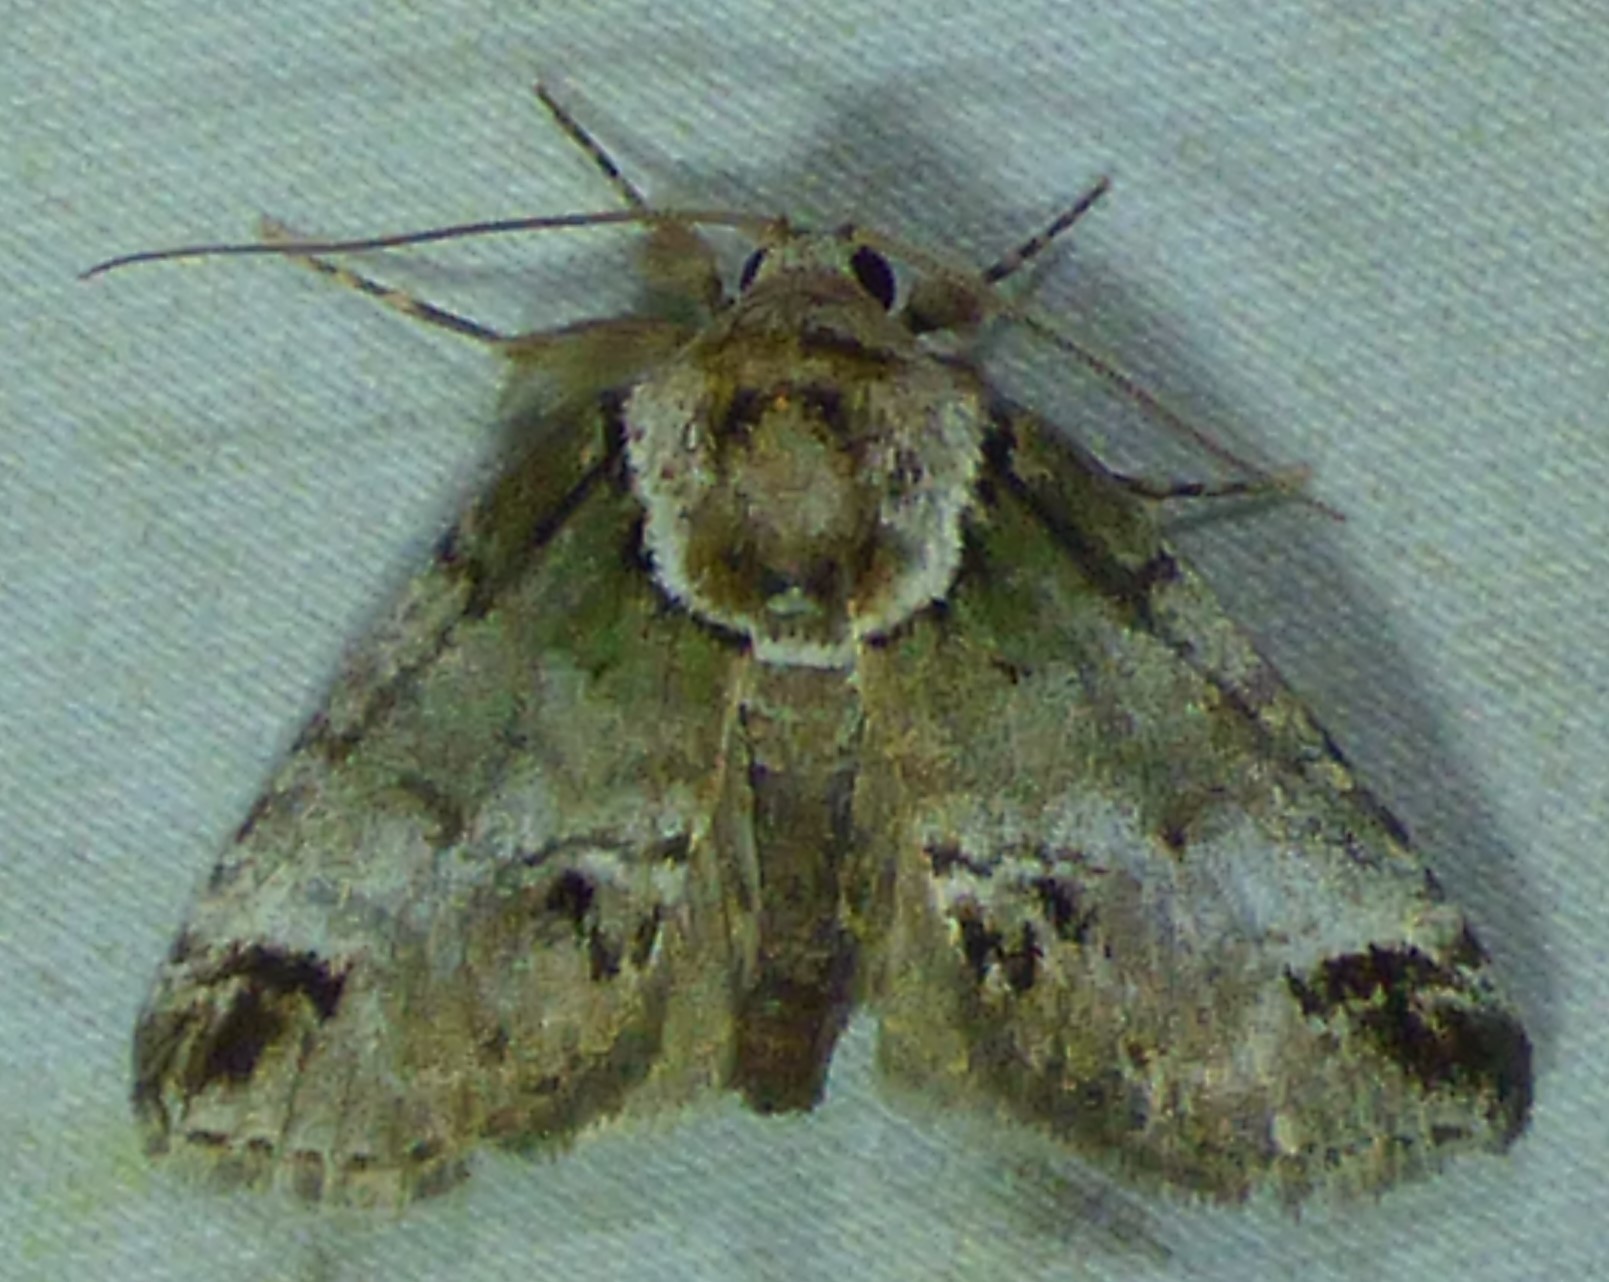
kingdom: Animalia
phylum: Arthropoda
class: Insecta
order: Lepidoptera
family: Nolidae
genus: Baileya
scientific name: Baileya australis
